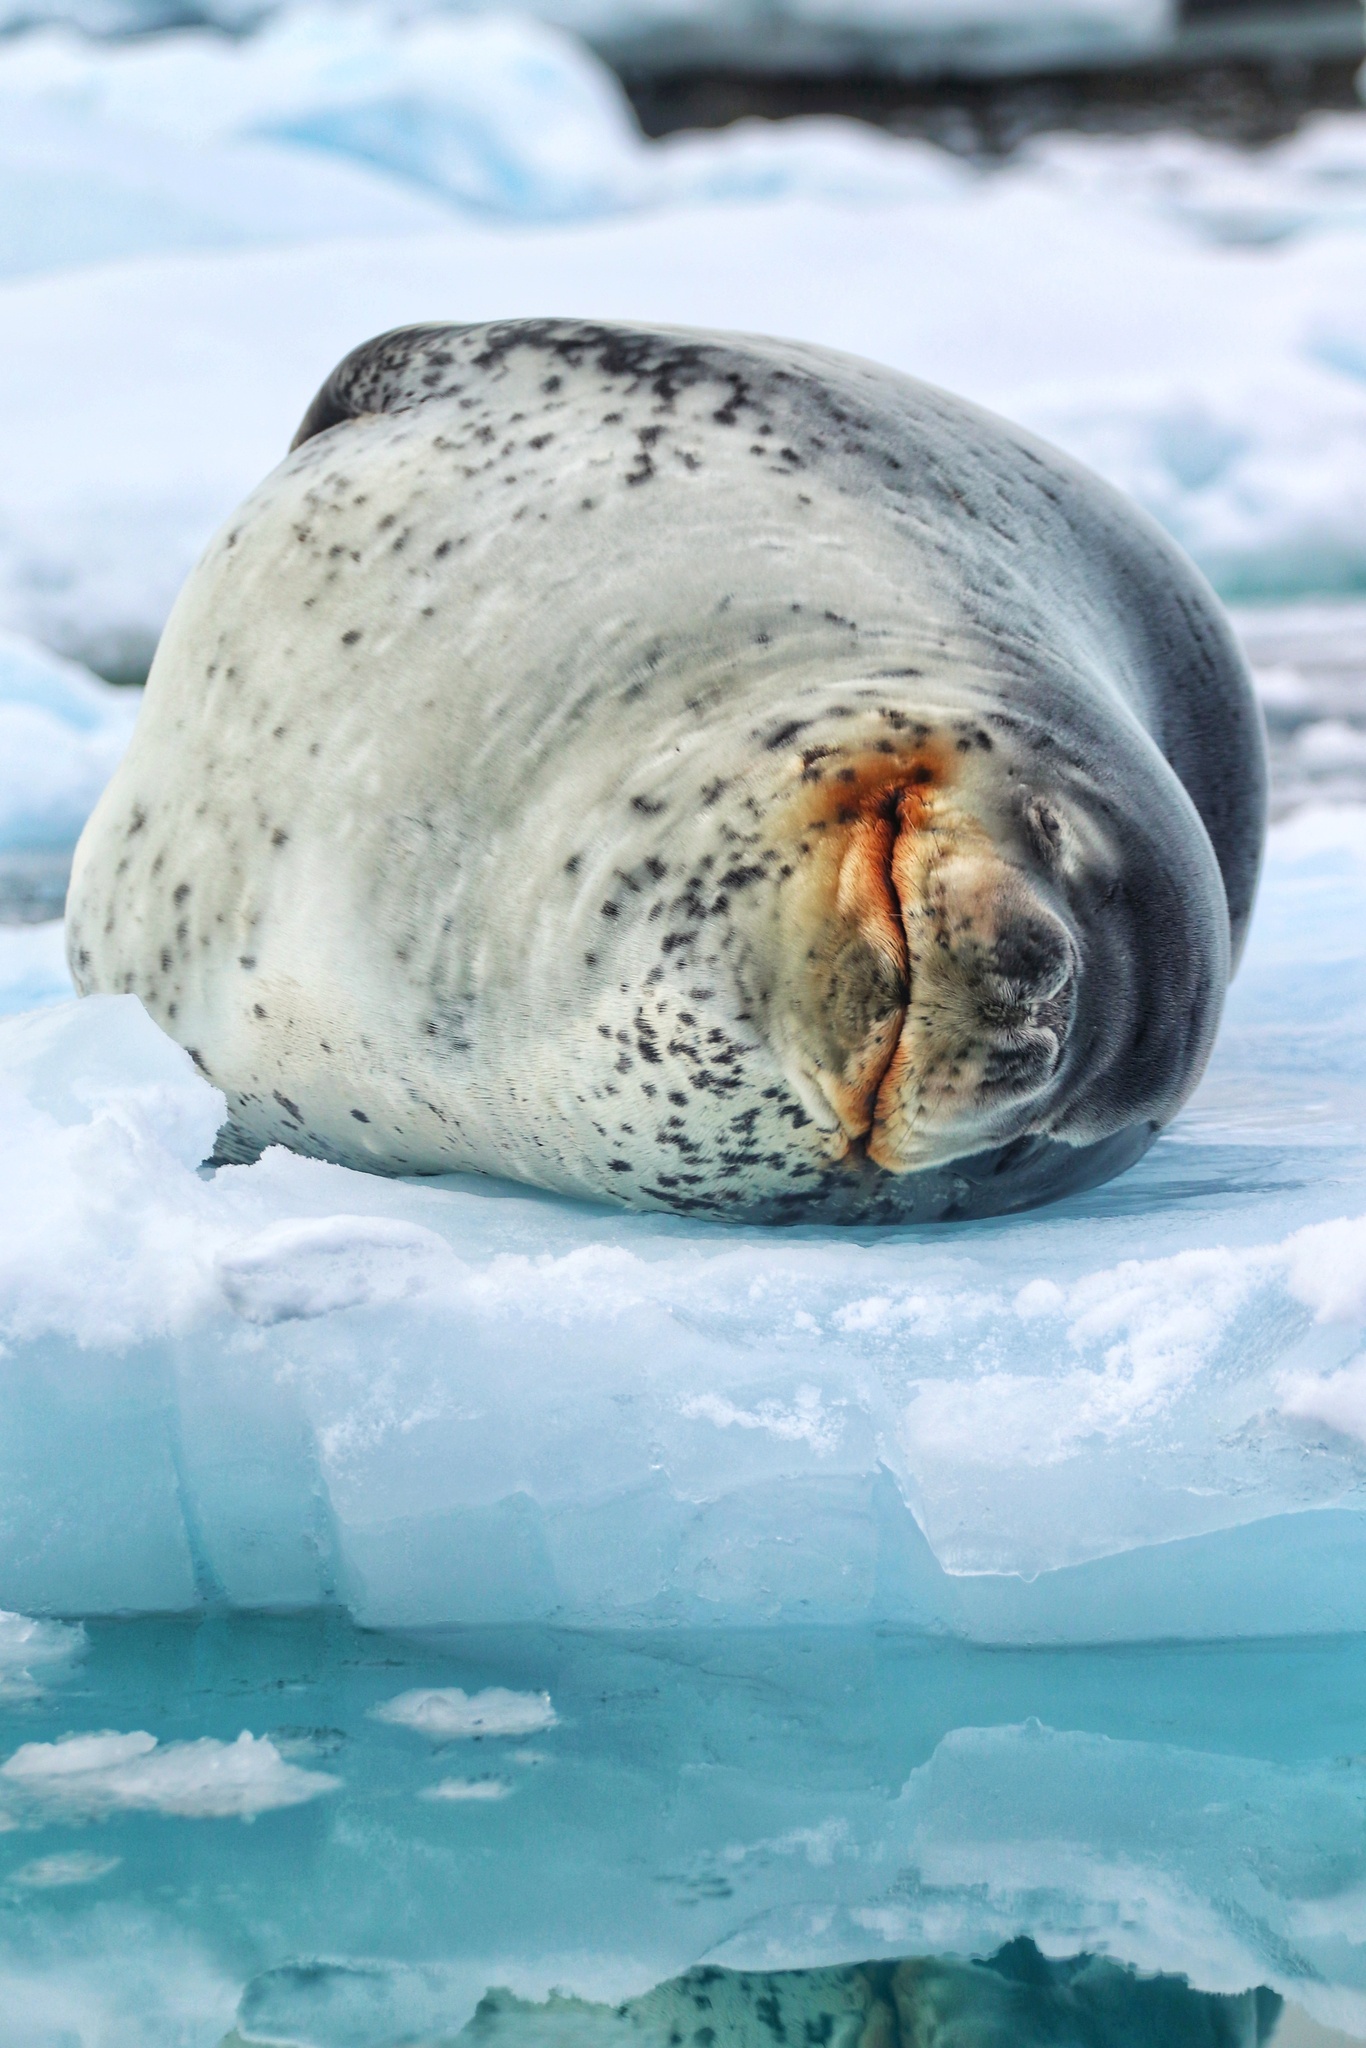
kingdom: Animalia
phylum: Chordata
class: Mammalia
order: Carnivora
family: Phocidae
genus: Hydrurga
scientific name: Hydrurga leptonyx
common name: Leopard seal
